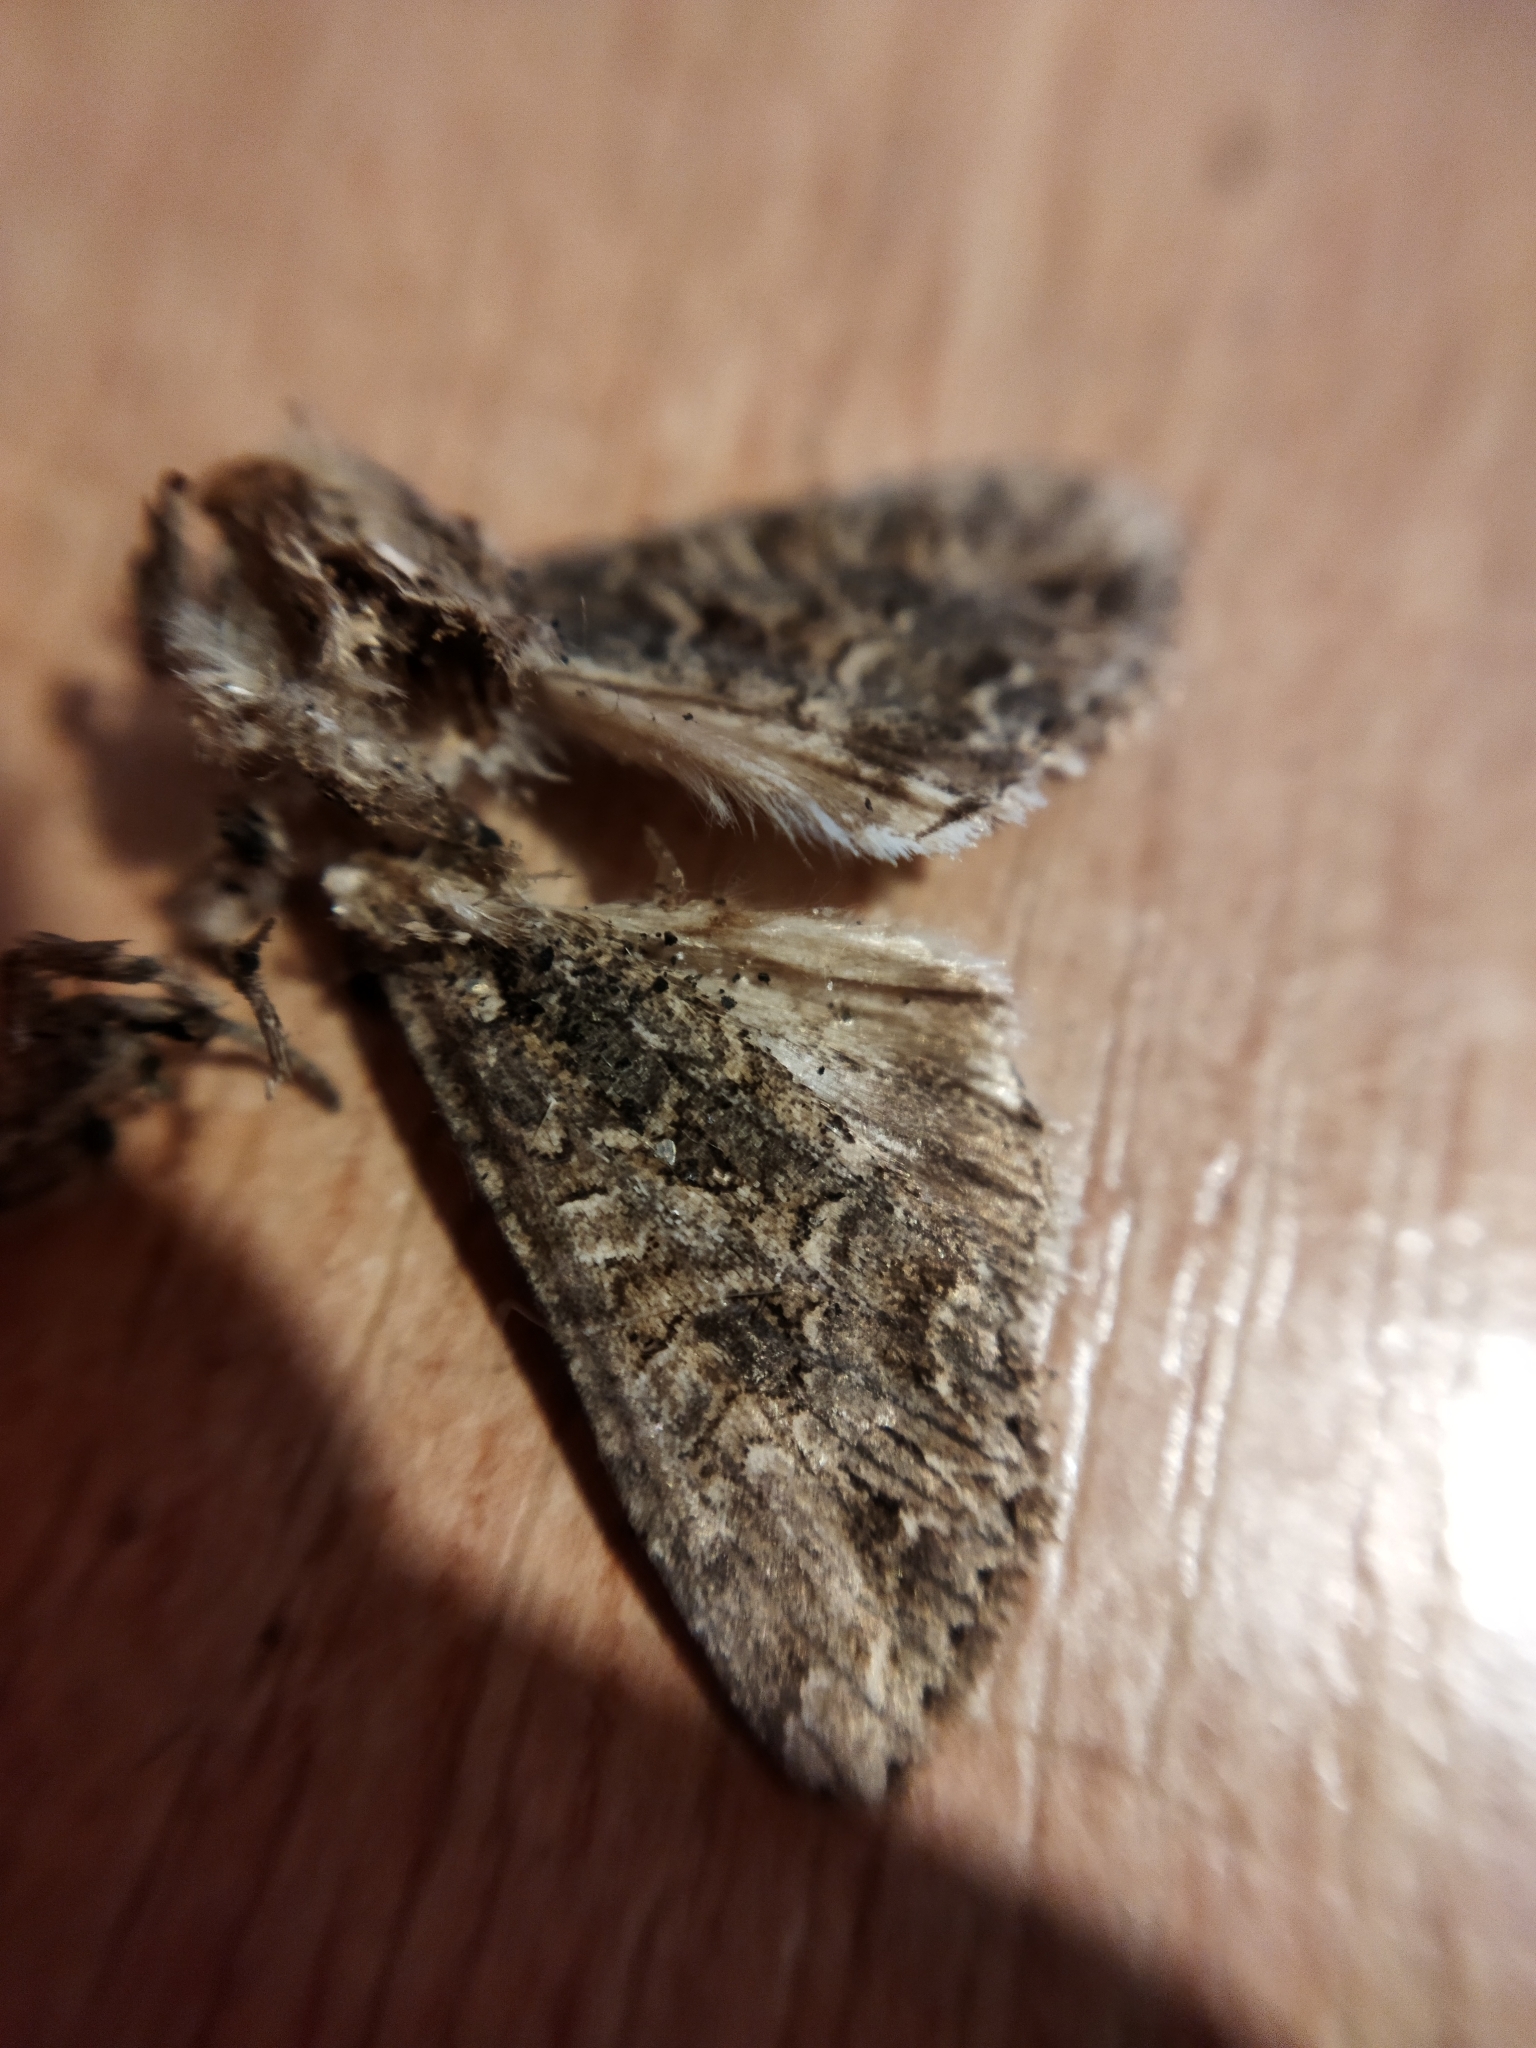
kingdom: Animalia
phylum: Arthropoda
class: Insecta
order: Lepidoptera
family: Noctuidae
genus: Anarta
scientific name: Anarta trifolii
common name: Clover cutworm moth
